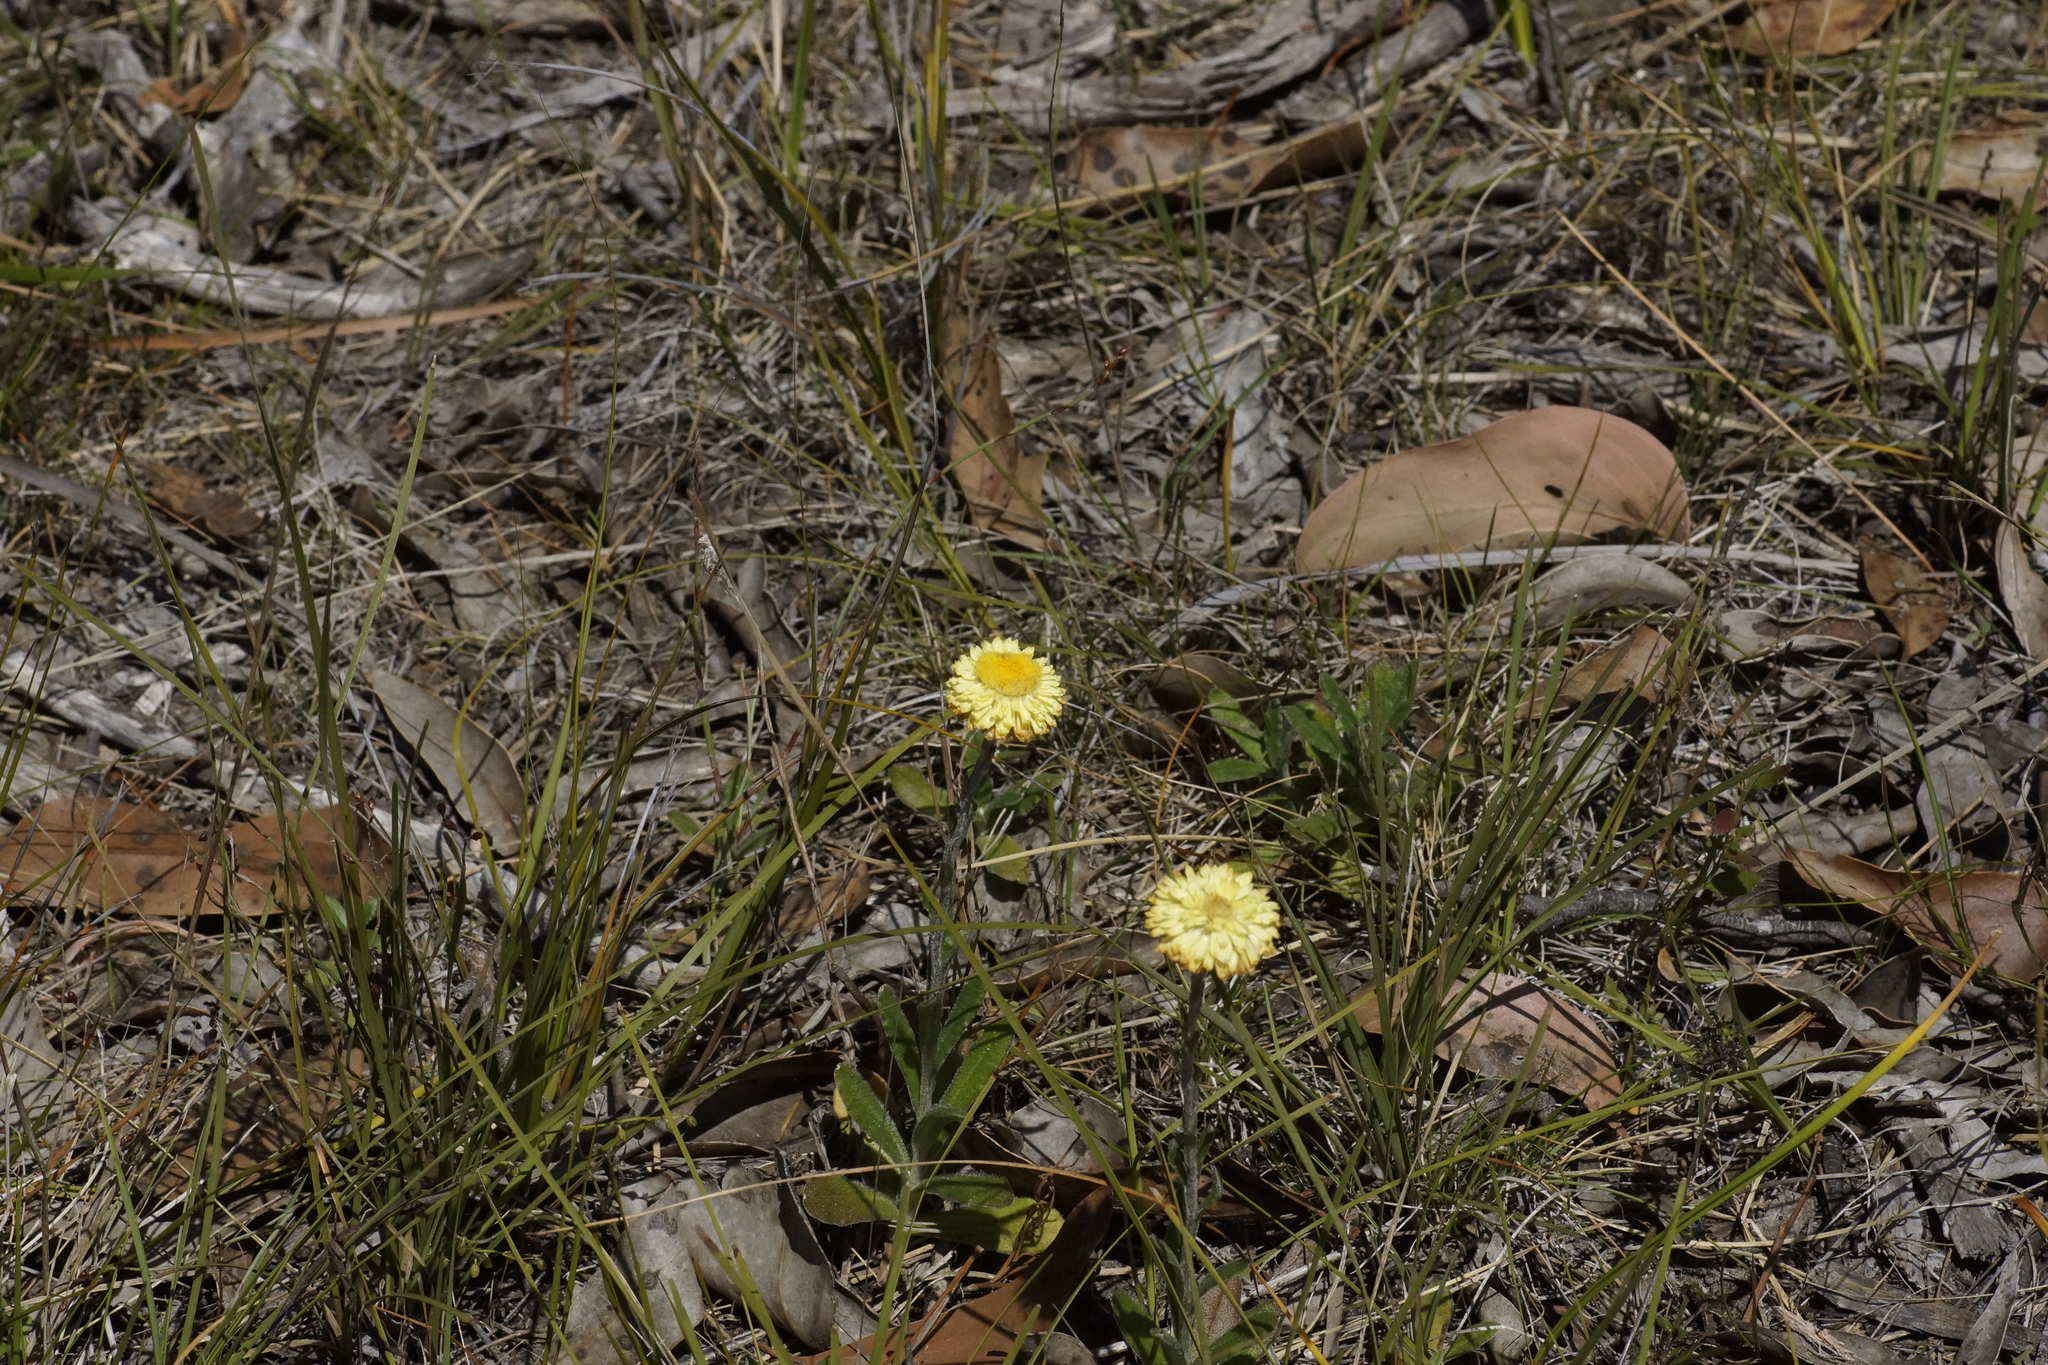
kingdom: Plantae
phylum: Tracheophyta
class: Magnoliopsida
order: Asterales
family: Asteraceae
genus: Coronidium
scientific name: Coronidium scorpioides
